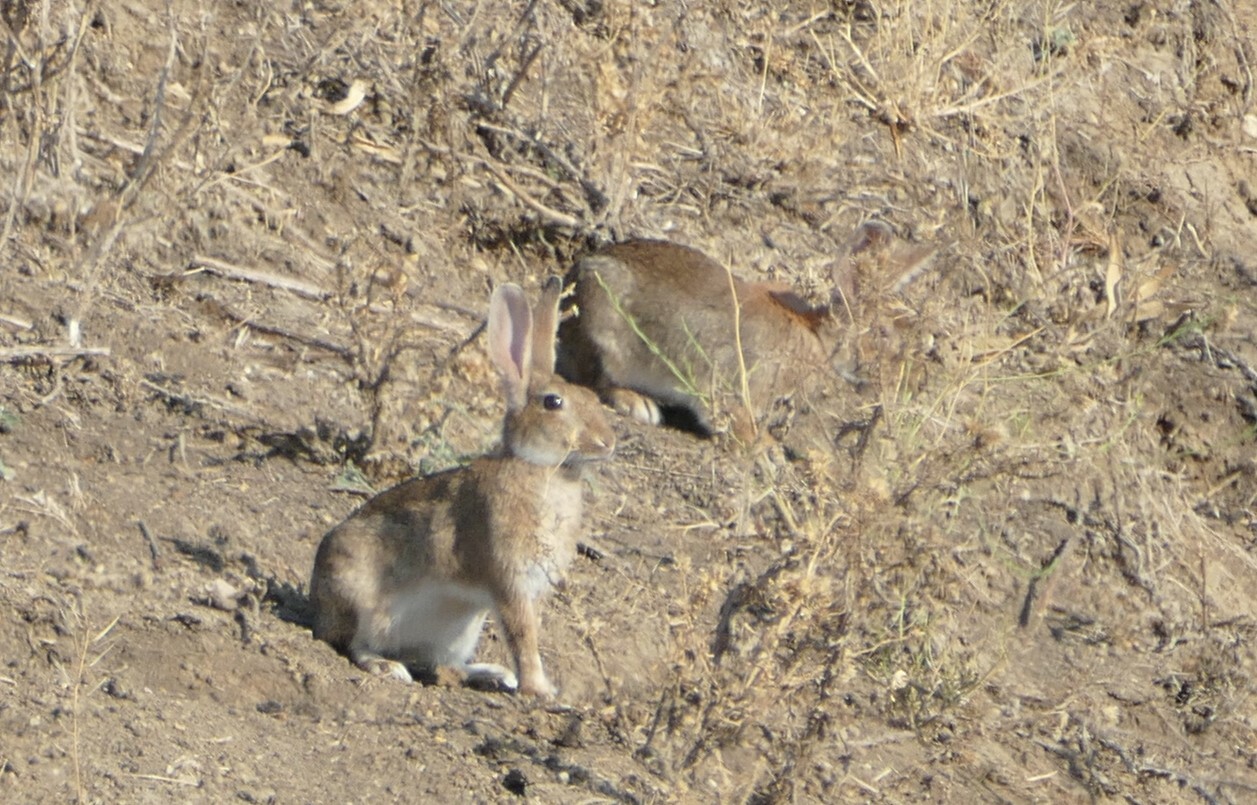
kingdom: Animalia
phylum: Chordata
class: Mammalia
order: Lagomorpha
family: Leporidae
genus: Oryctolagus
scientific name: Oryctolagus cuniculus
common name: European rabbit
